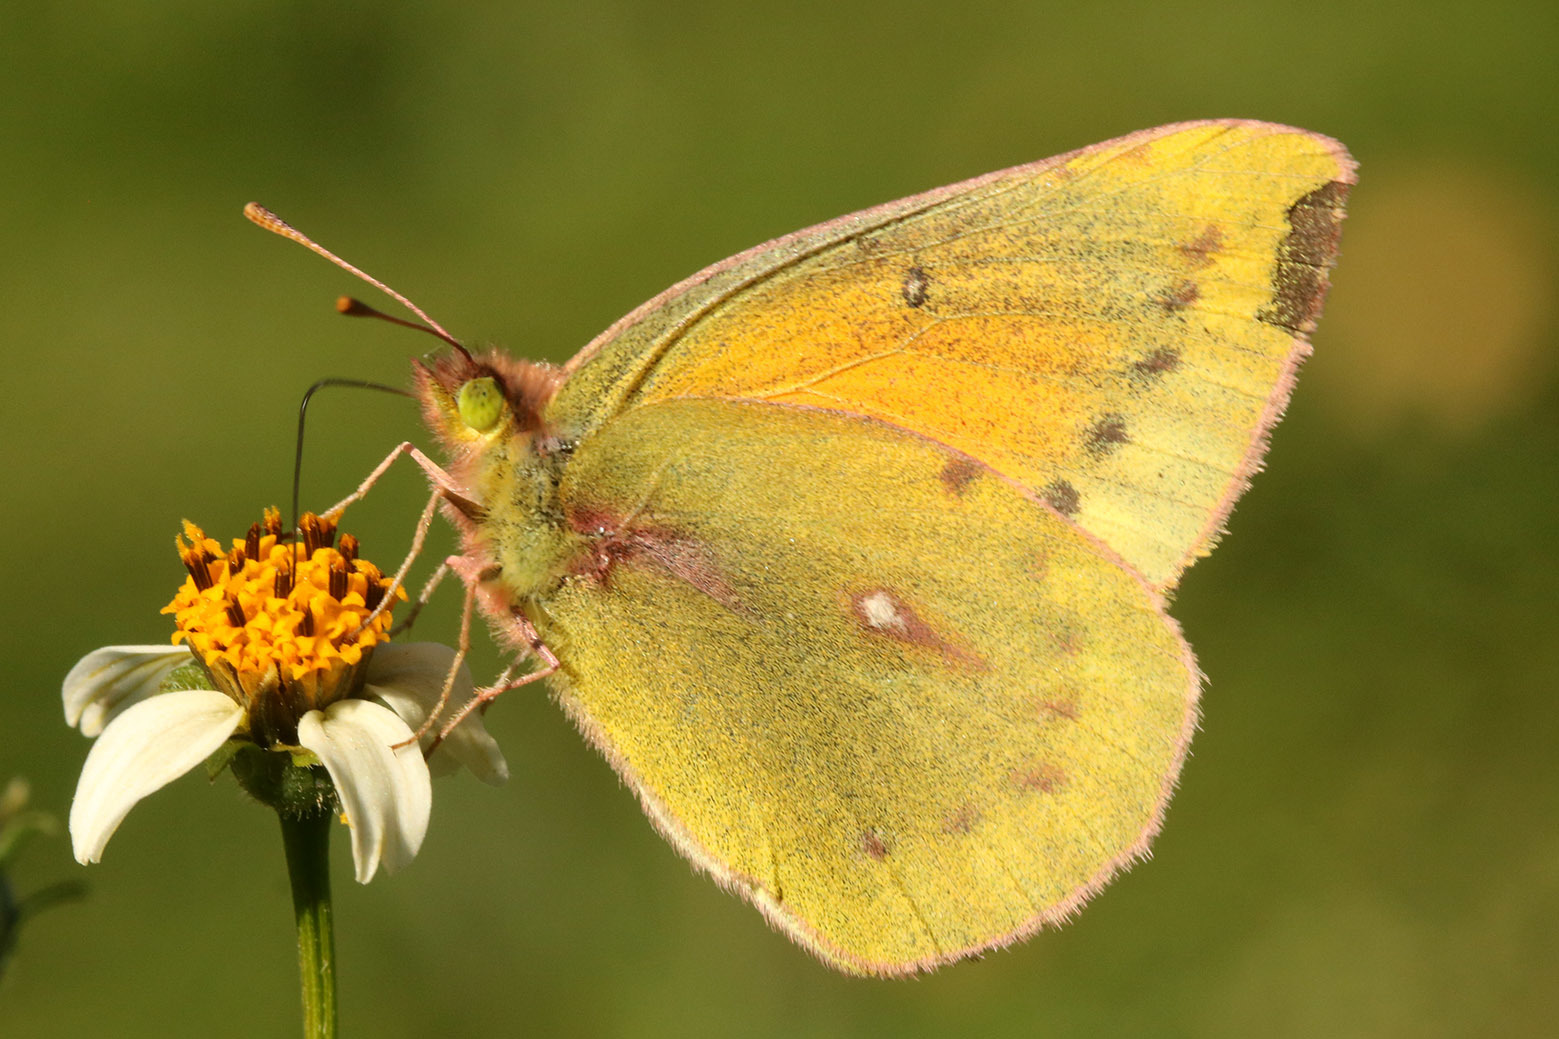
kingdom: Animalia
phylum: Arthropoda
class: Insecta
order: Lepidoptera
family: Pieridae
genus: Colias
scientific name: Colias lesbia
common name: Lesbia clouded yellow
